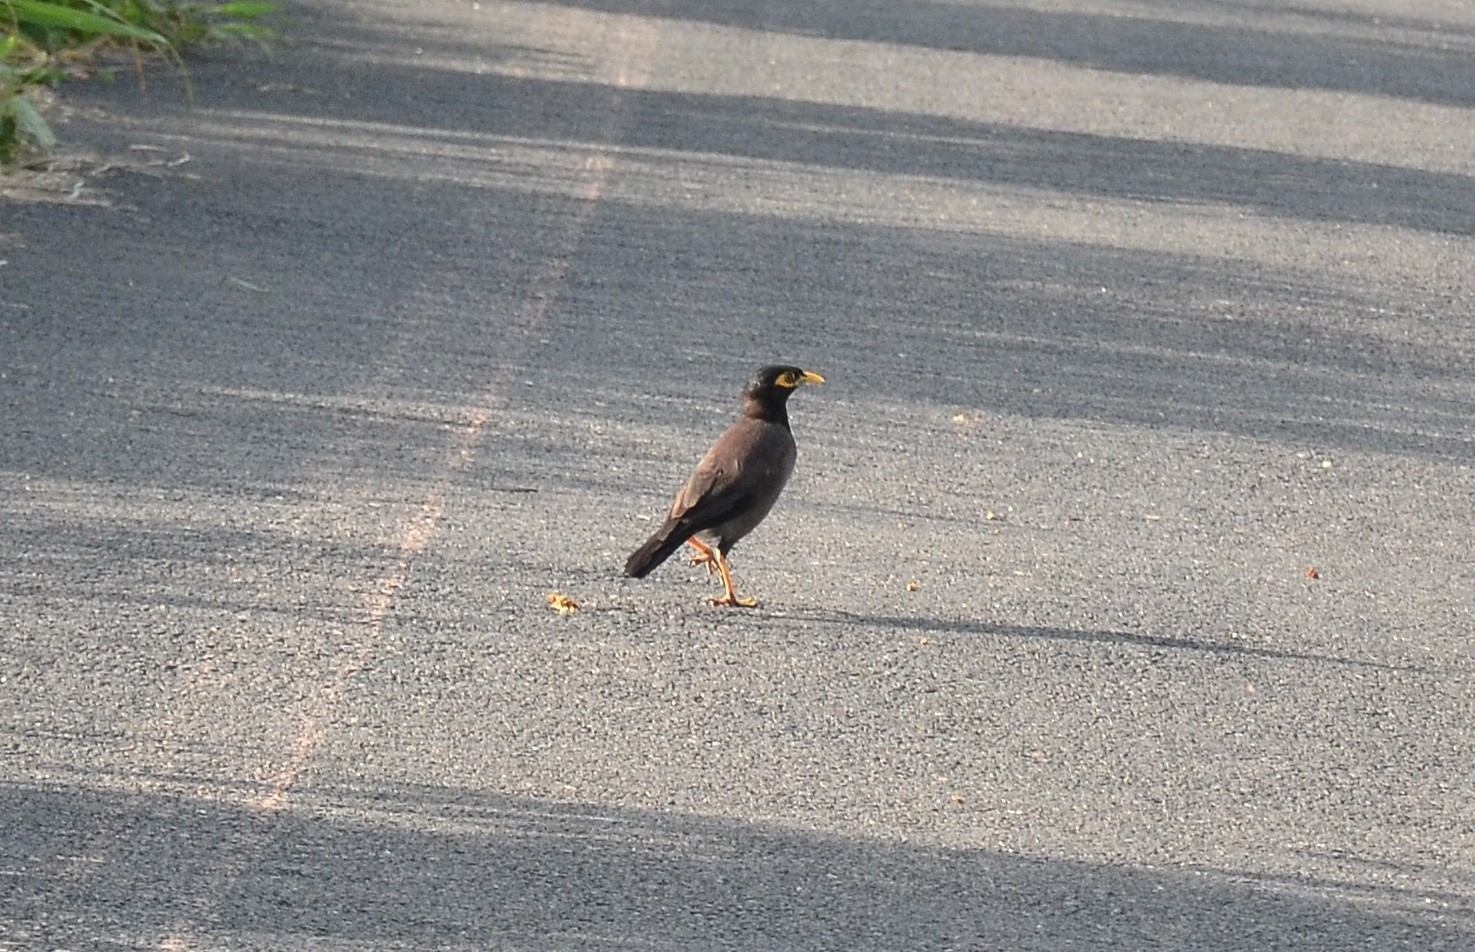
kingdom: Animalia
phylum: Chordata
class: Aves
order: Passeriformes
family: Sturnidae
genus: Acridotheres
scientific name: Acridotheres tristis
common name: Common myna
